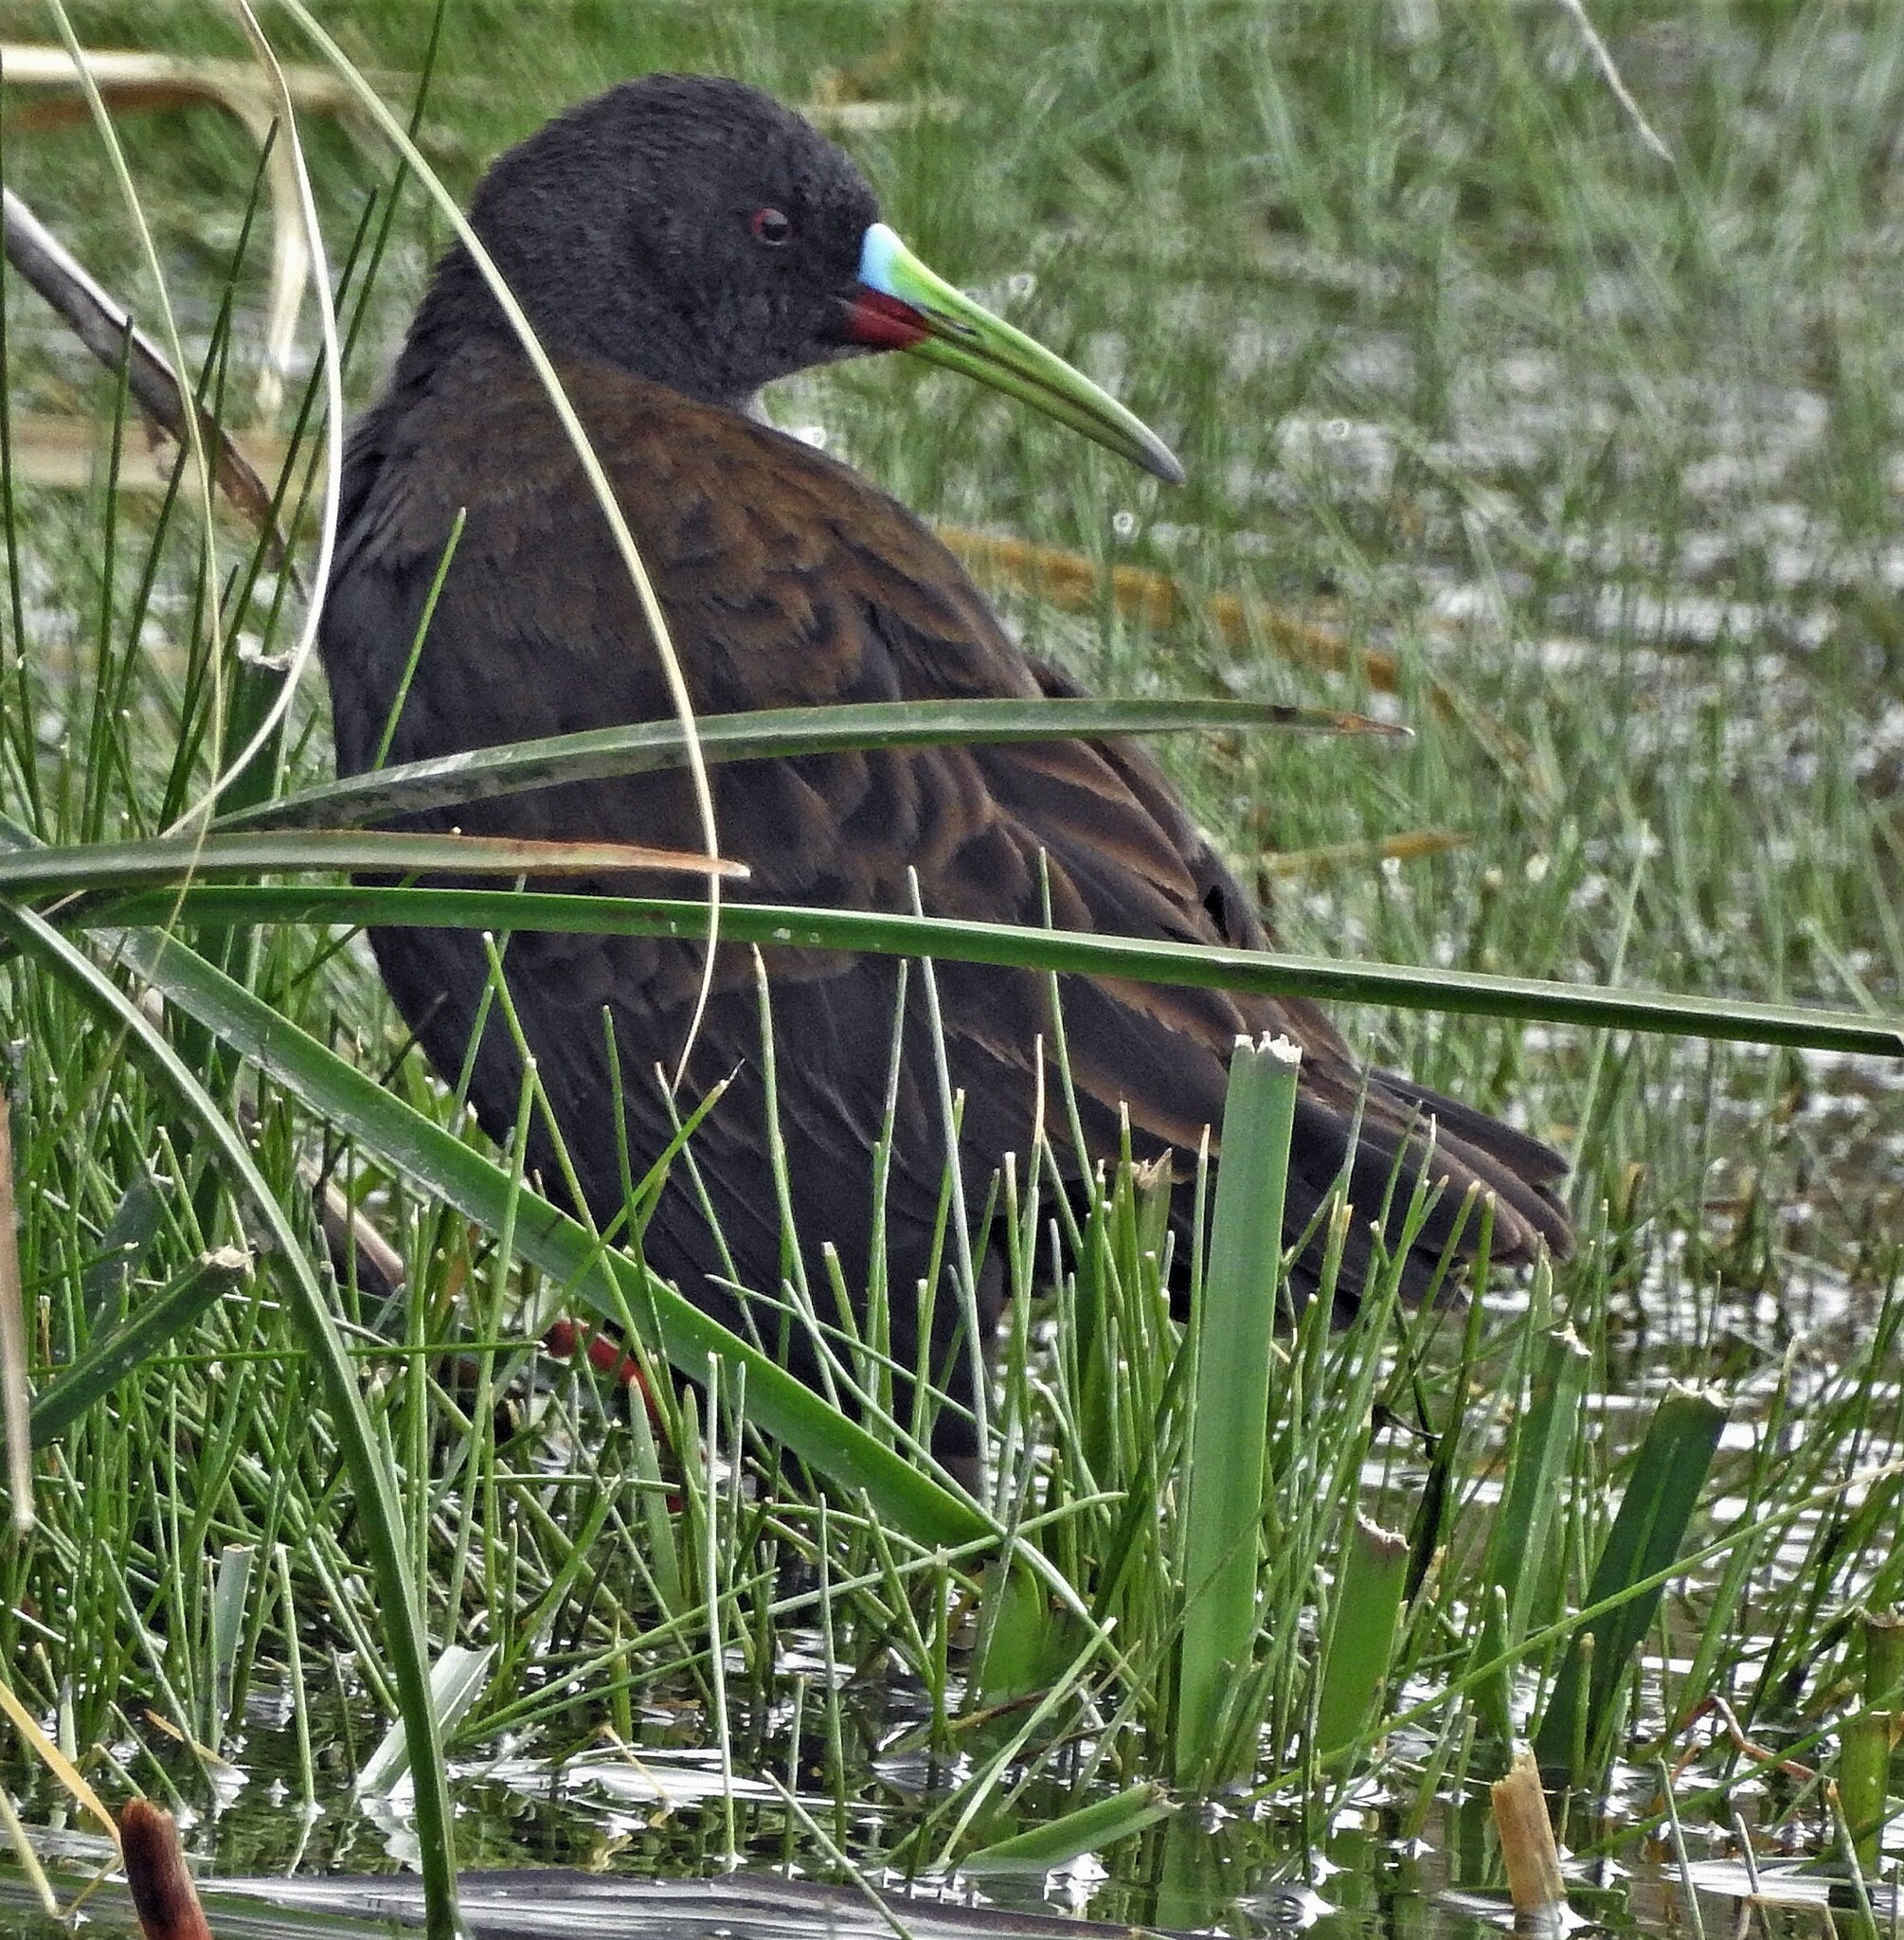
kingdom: Animalia
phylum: Chordata
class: Aves
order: Gruiformes
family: Rallidae
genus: Pardirallus
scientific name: Pardirallus sanguinolentus
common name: Plumbeous rail
